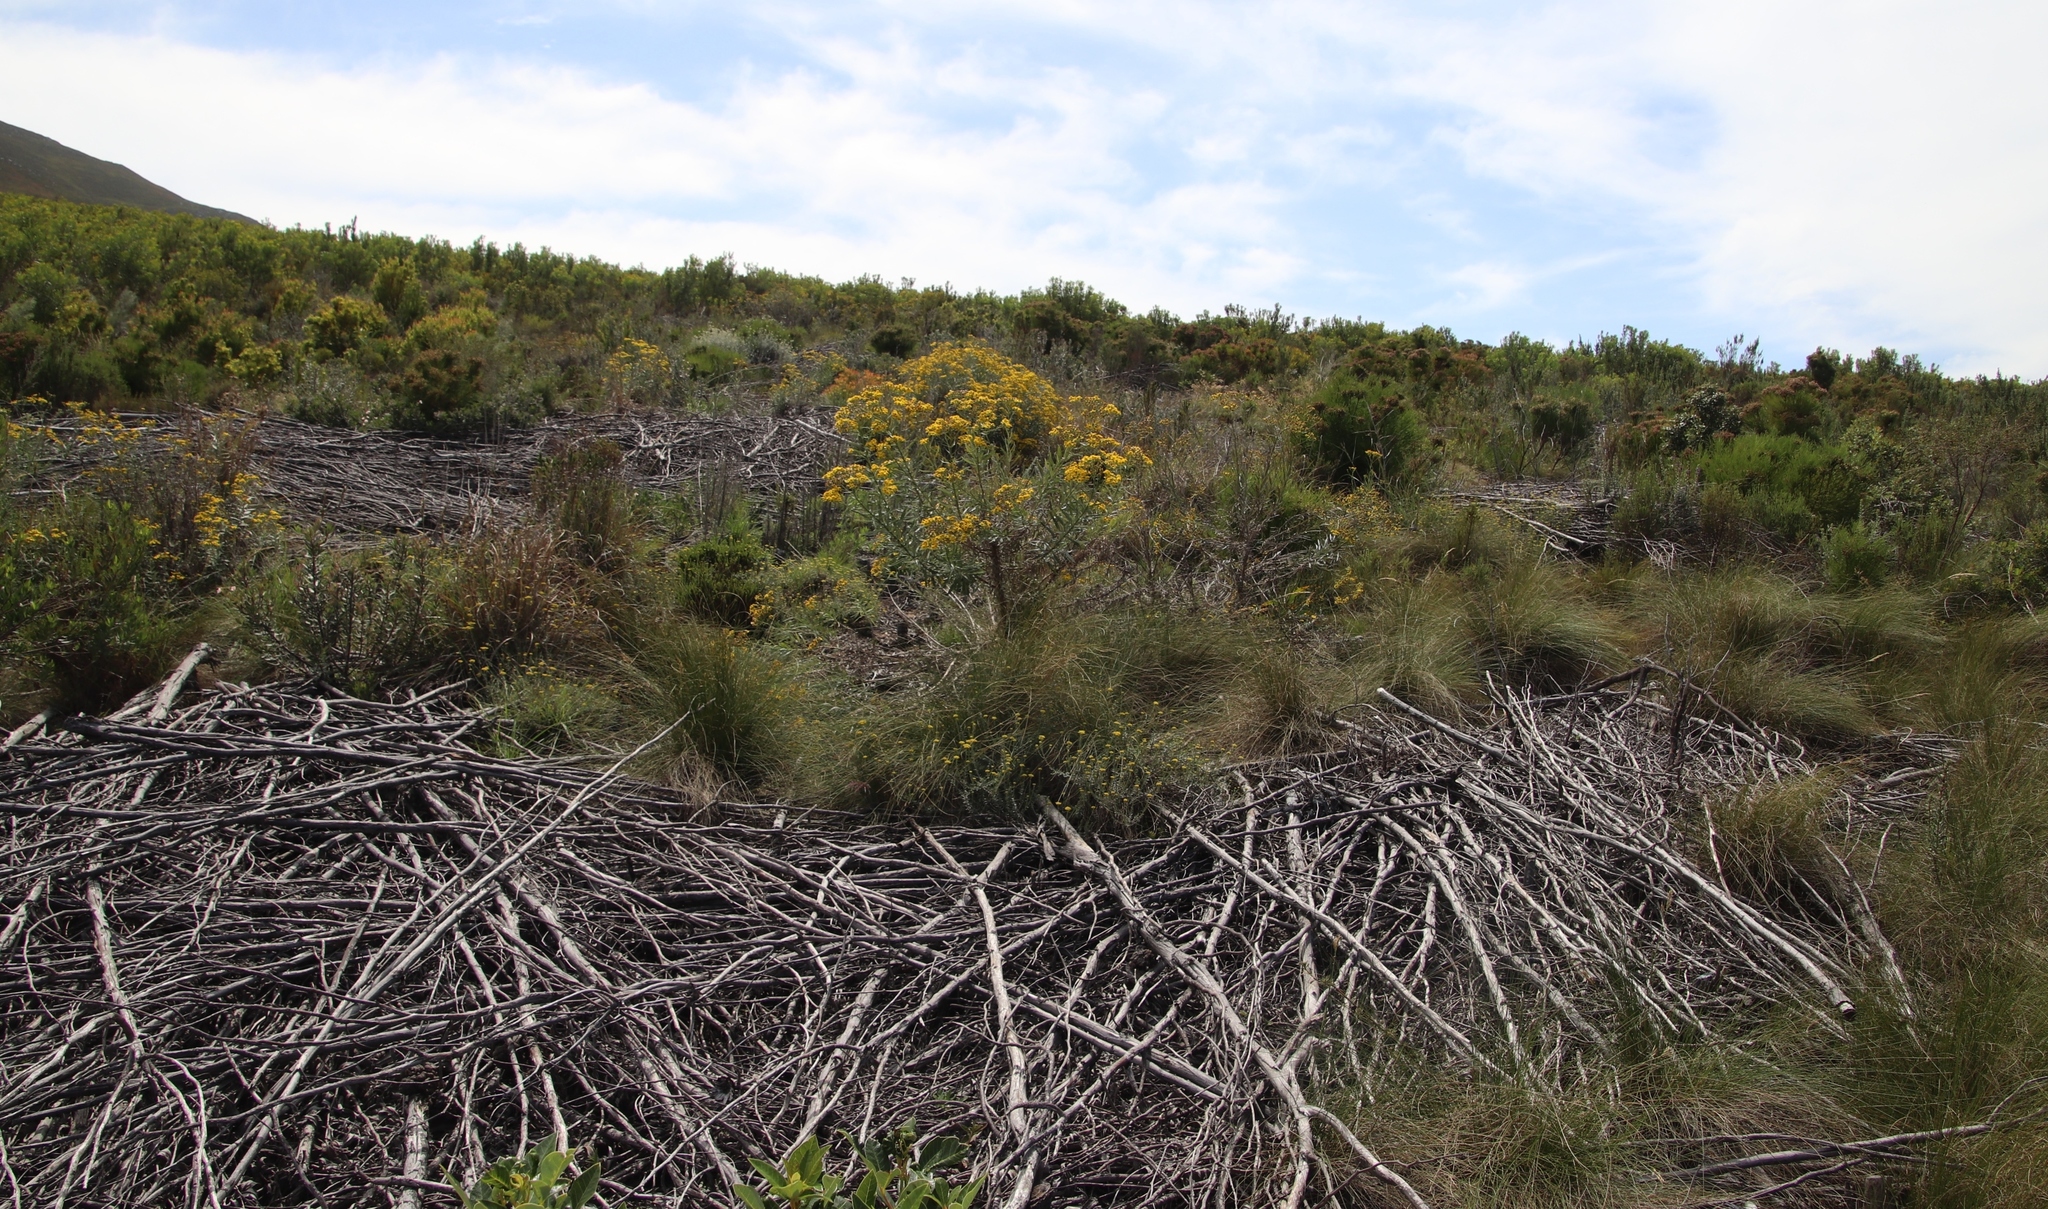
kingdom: Plantae
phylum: Tracheophyta
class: Magnoliopsida
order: Asterales
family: Asteraceae
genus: Senecio
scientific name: Senecio pterophorus
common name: Shoddy ragwort
